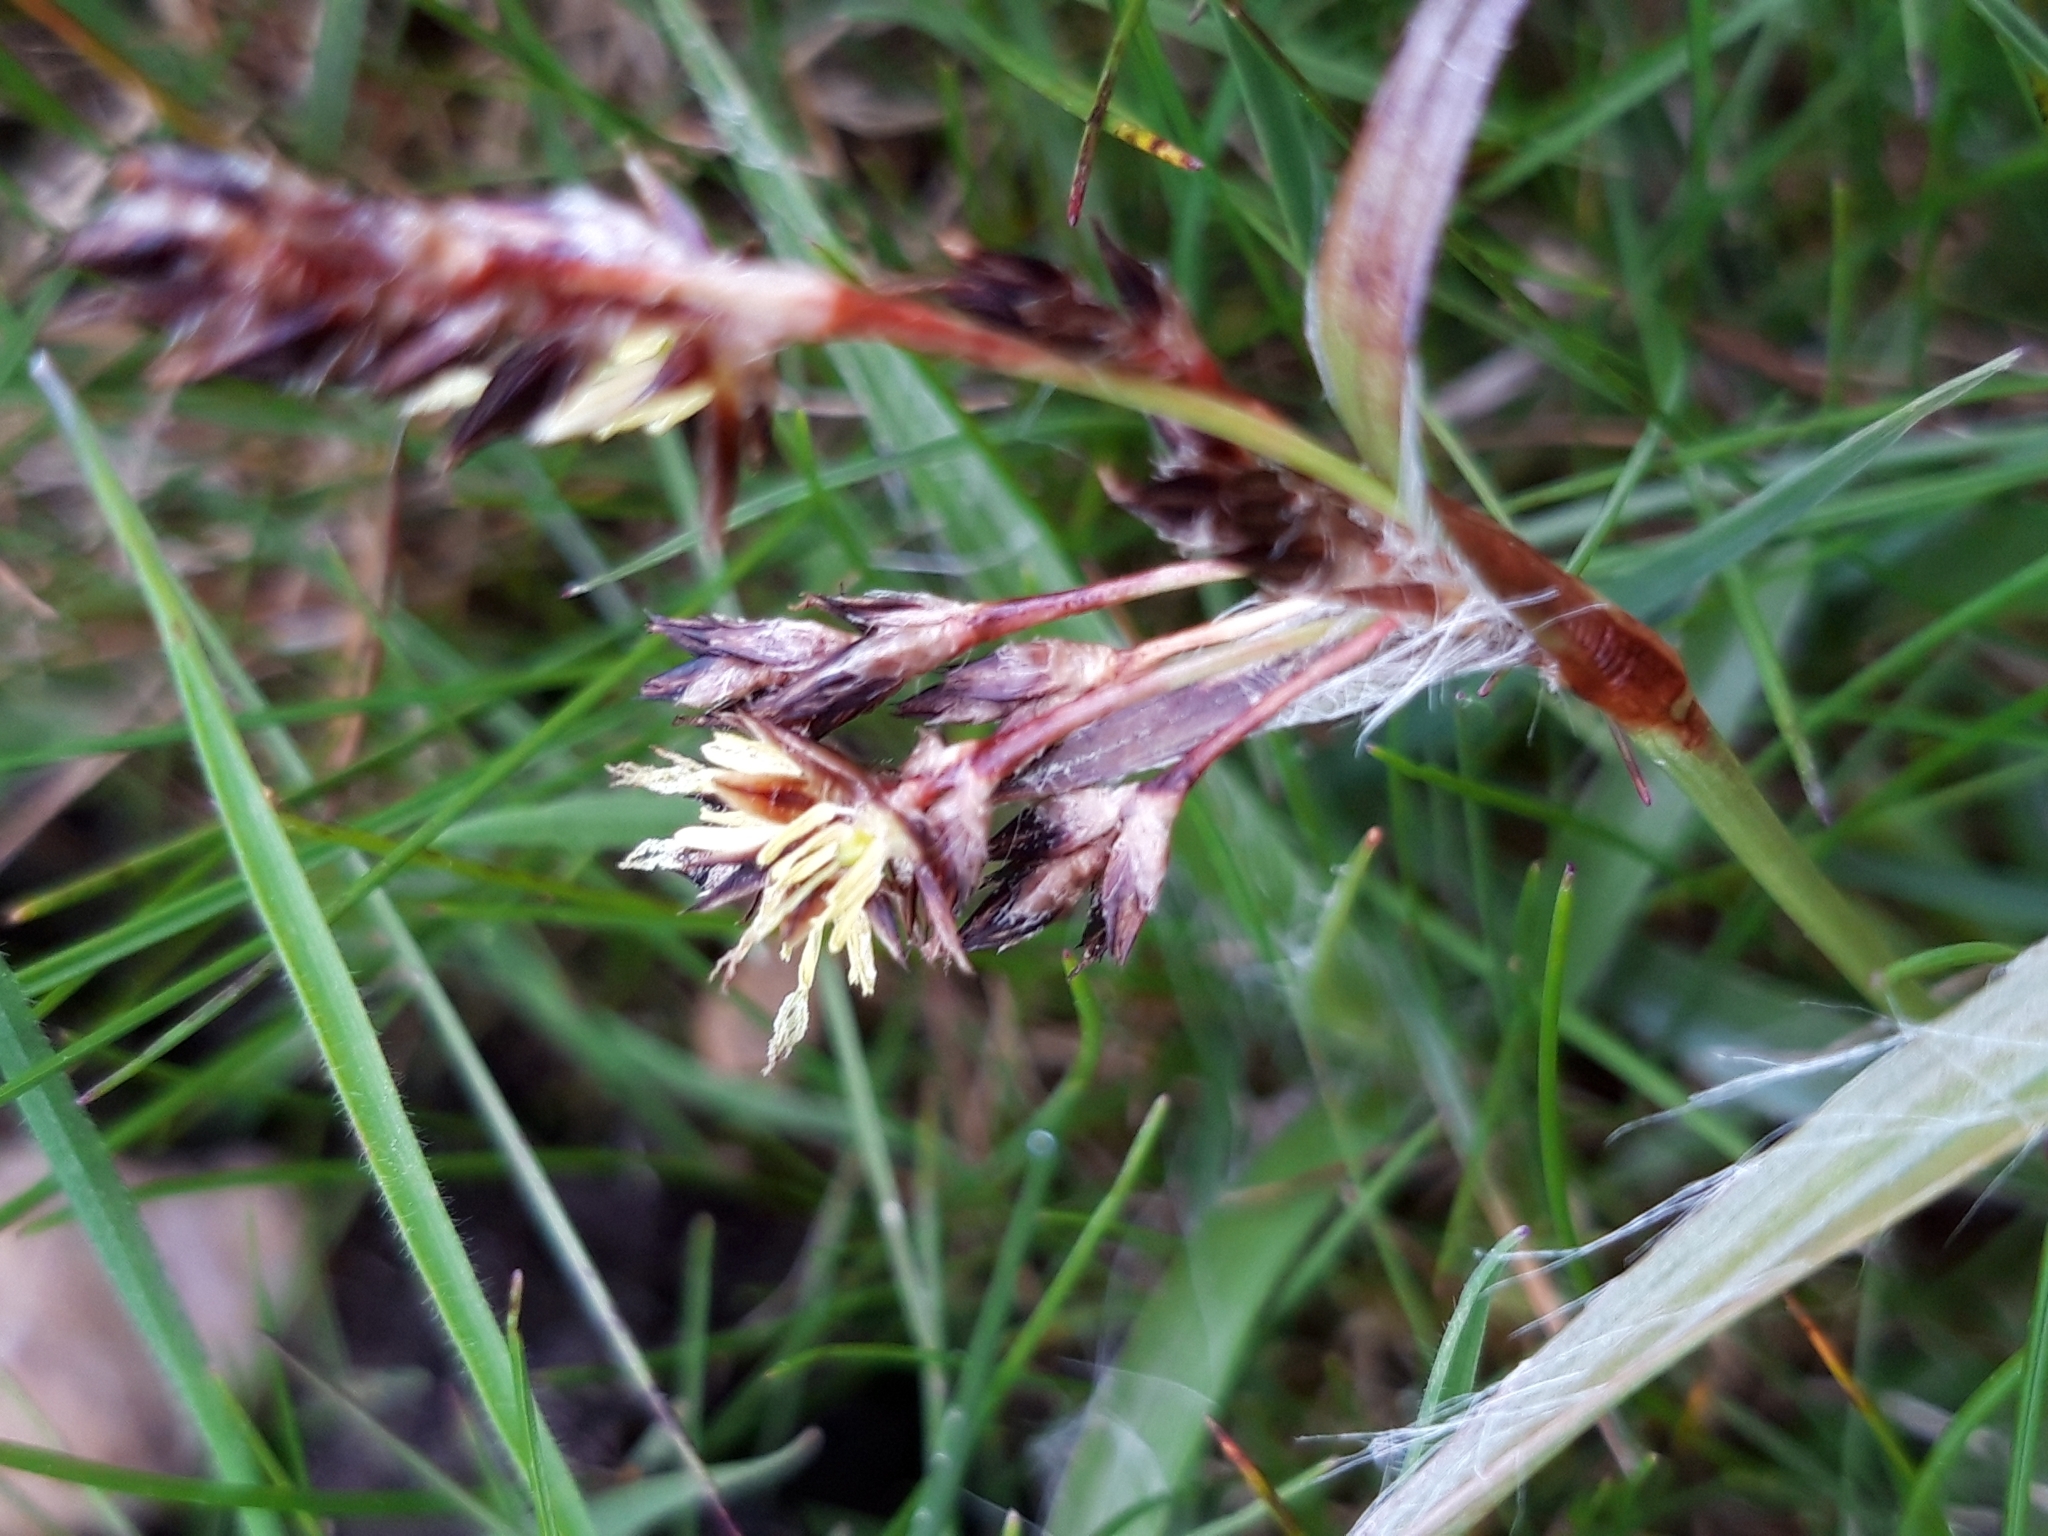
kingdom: Plantae
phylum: Tracheophyta
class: Liliopsida
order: Poales
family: Juncaceae
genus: Luzula
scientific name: Luzula campestris
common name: Field wood-rush
